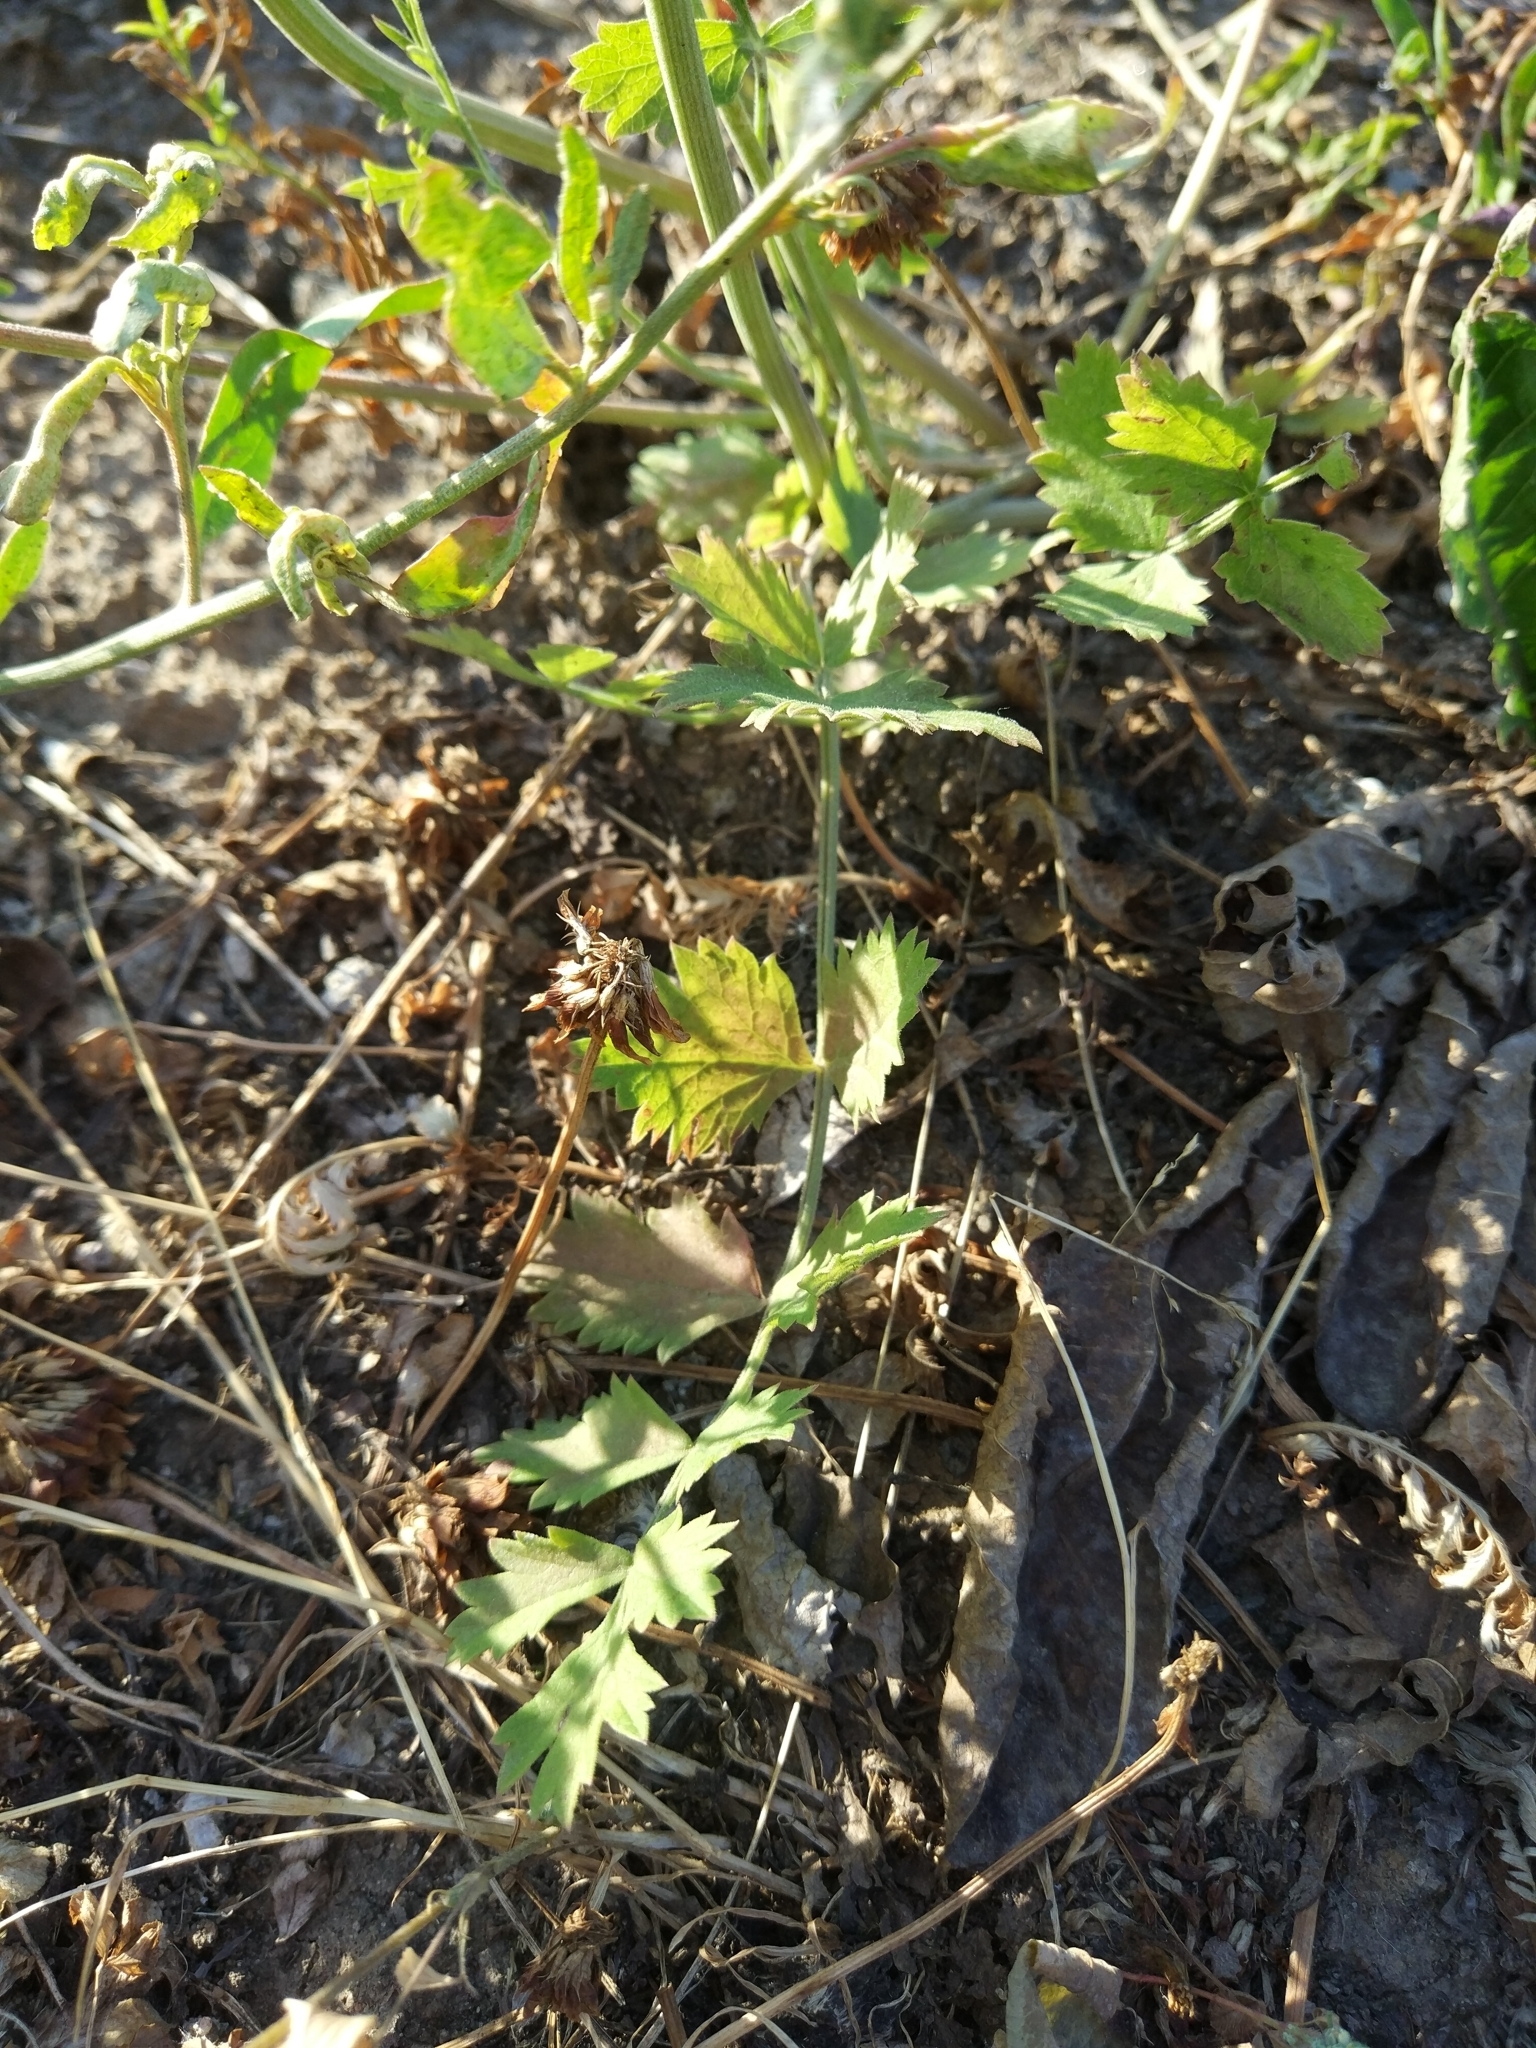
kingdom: Plantae
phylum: Tracheophyta
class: Magnoliopsida
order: Apiales
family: Apiaceae
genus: Pimpinella
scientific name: Pimpinella saxifraga
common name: Burnet-saxifrage
